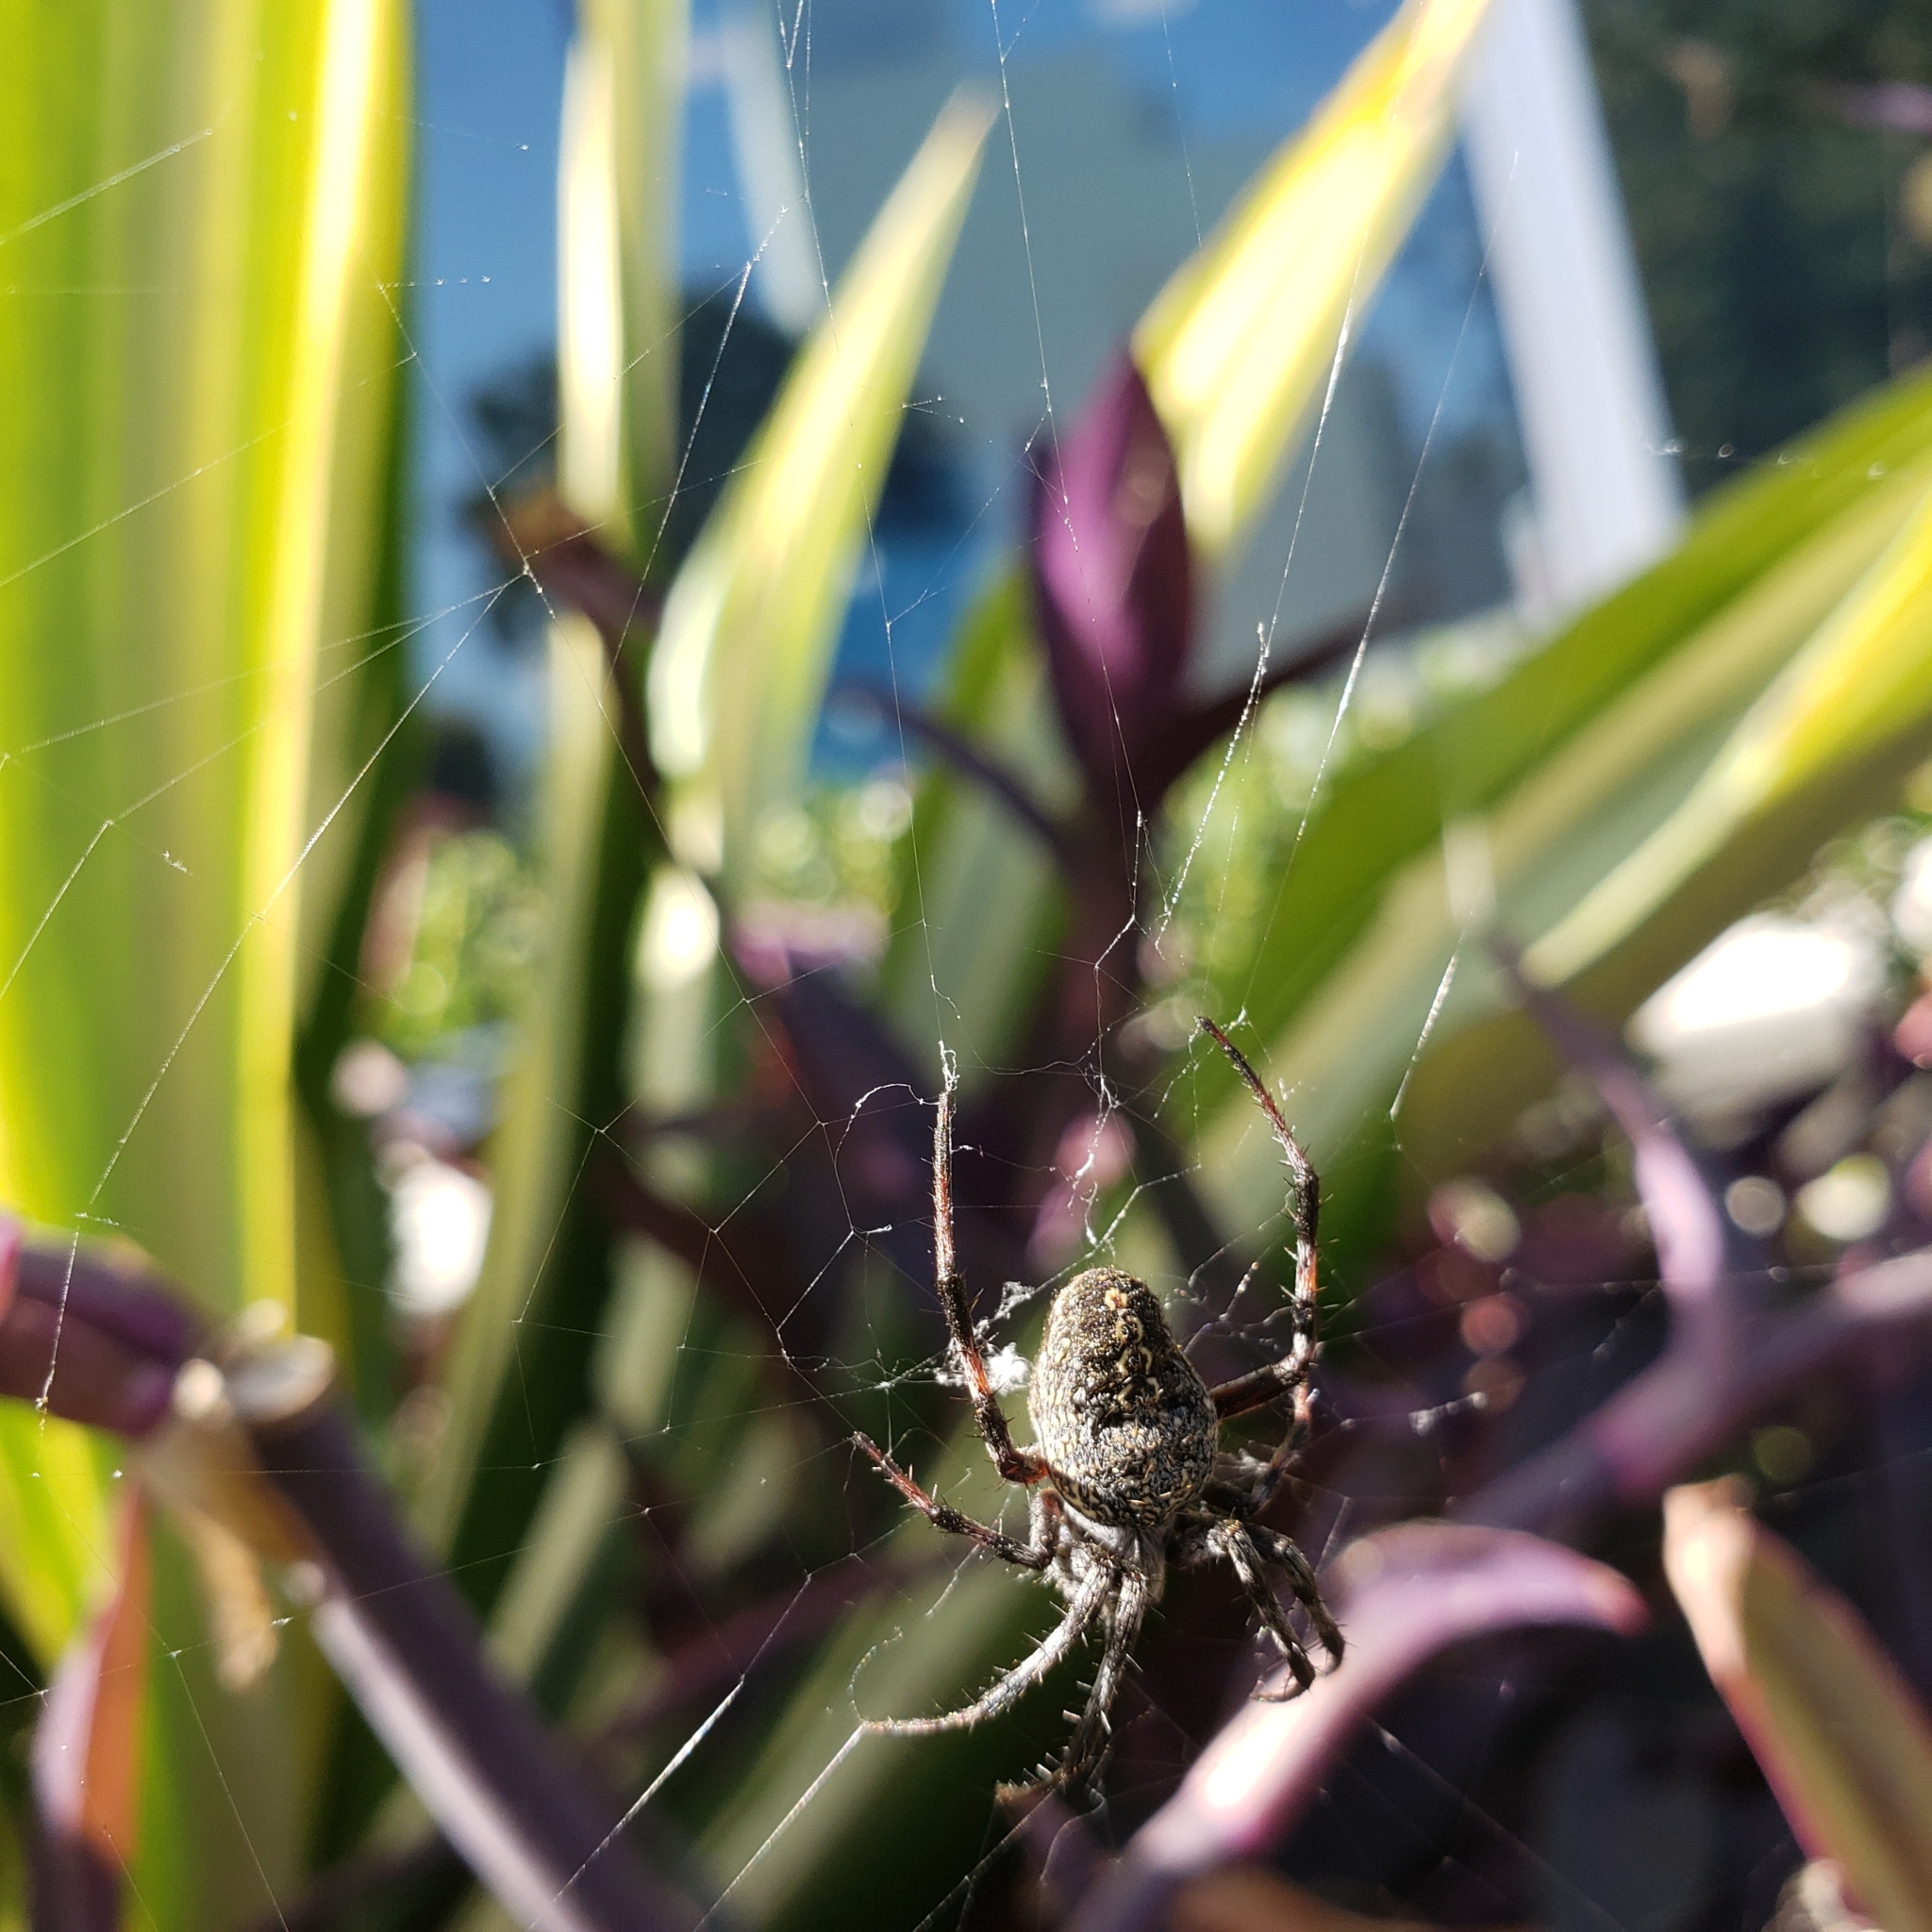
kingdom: Animalia
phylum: Arthropoda
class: Arachnida
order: Araneae
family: Araneidae
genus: Neoscona
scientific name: Neoscona oaxacensis
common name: Orb weavers
